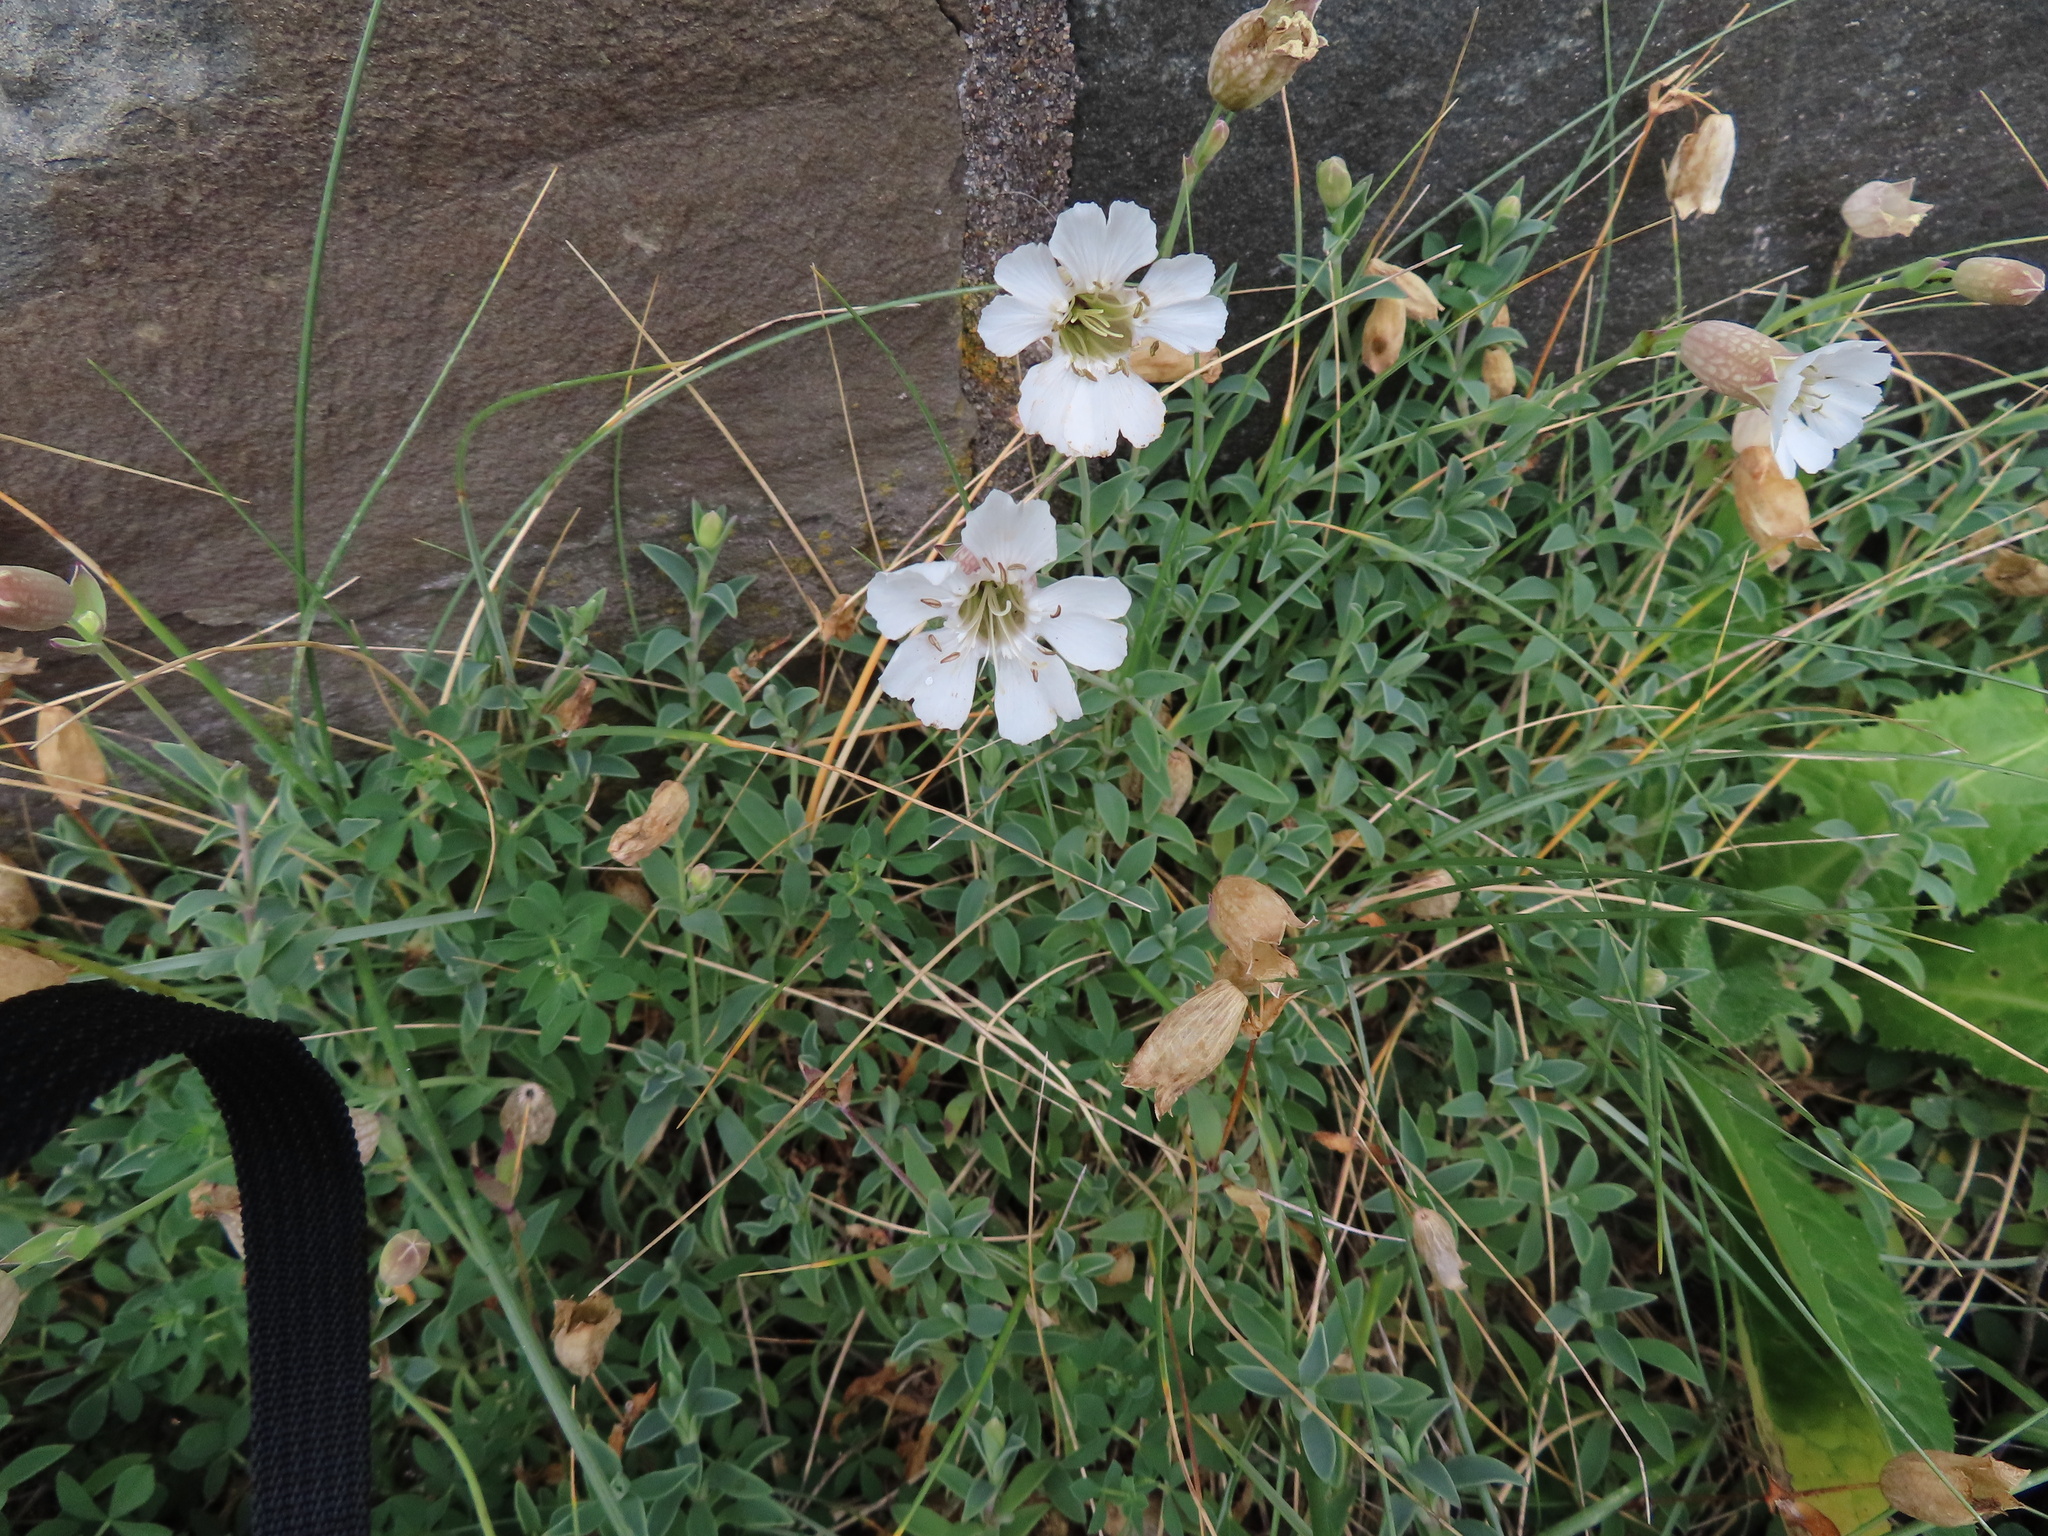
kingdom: Plantae
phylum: Tracheophyta
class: Magnoliopsida
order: Caryophyllales
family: Caryophyllaceae
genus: Silene
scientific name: Silene uniflora
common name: Sea campion
